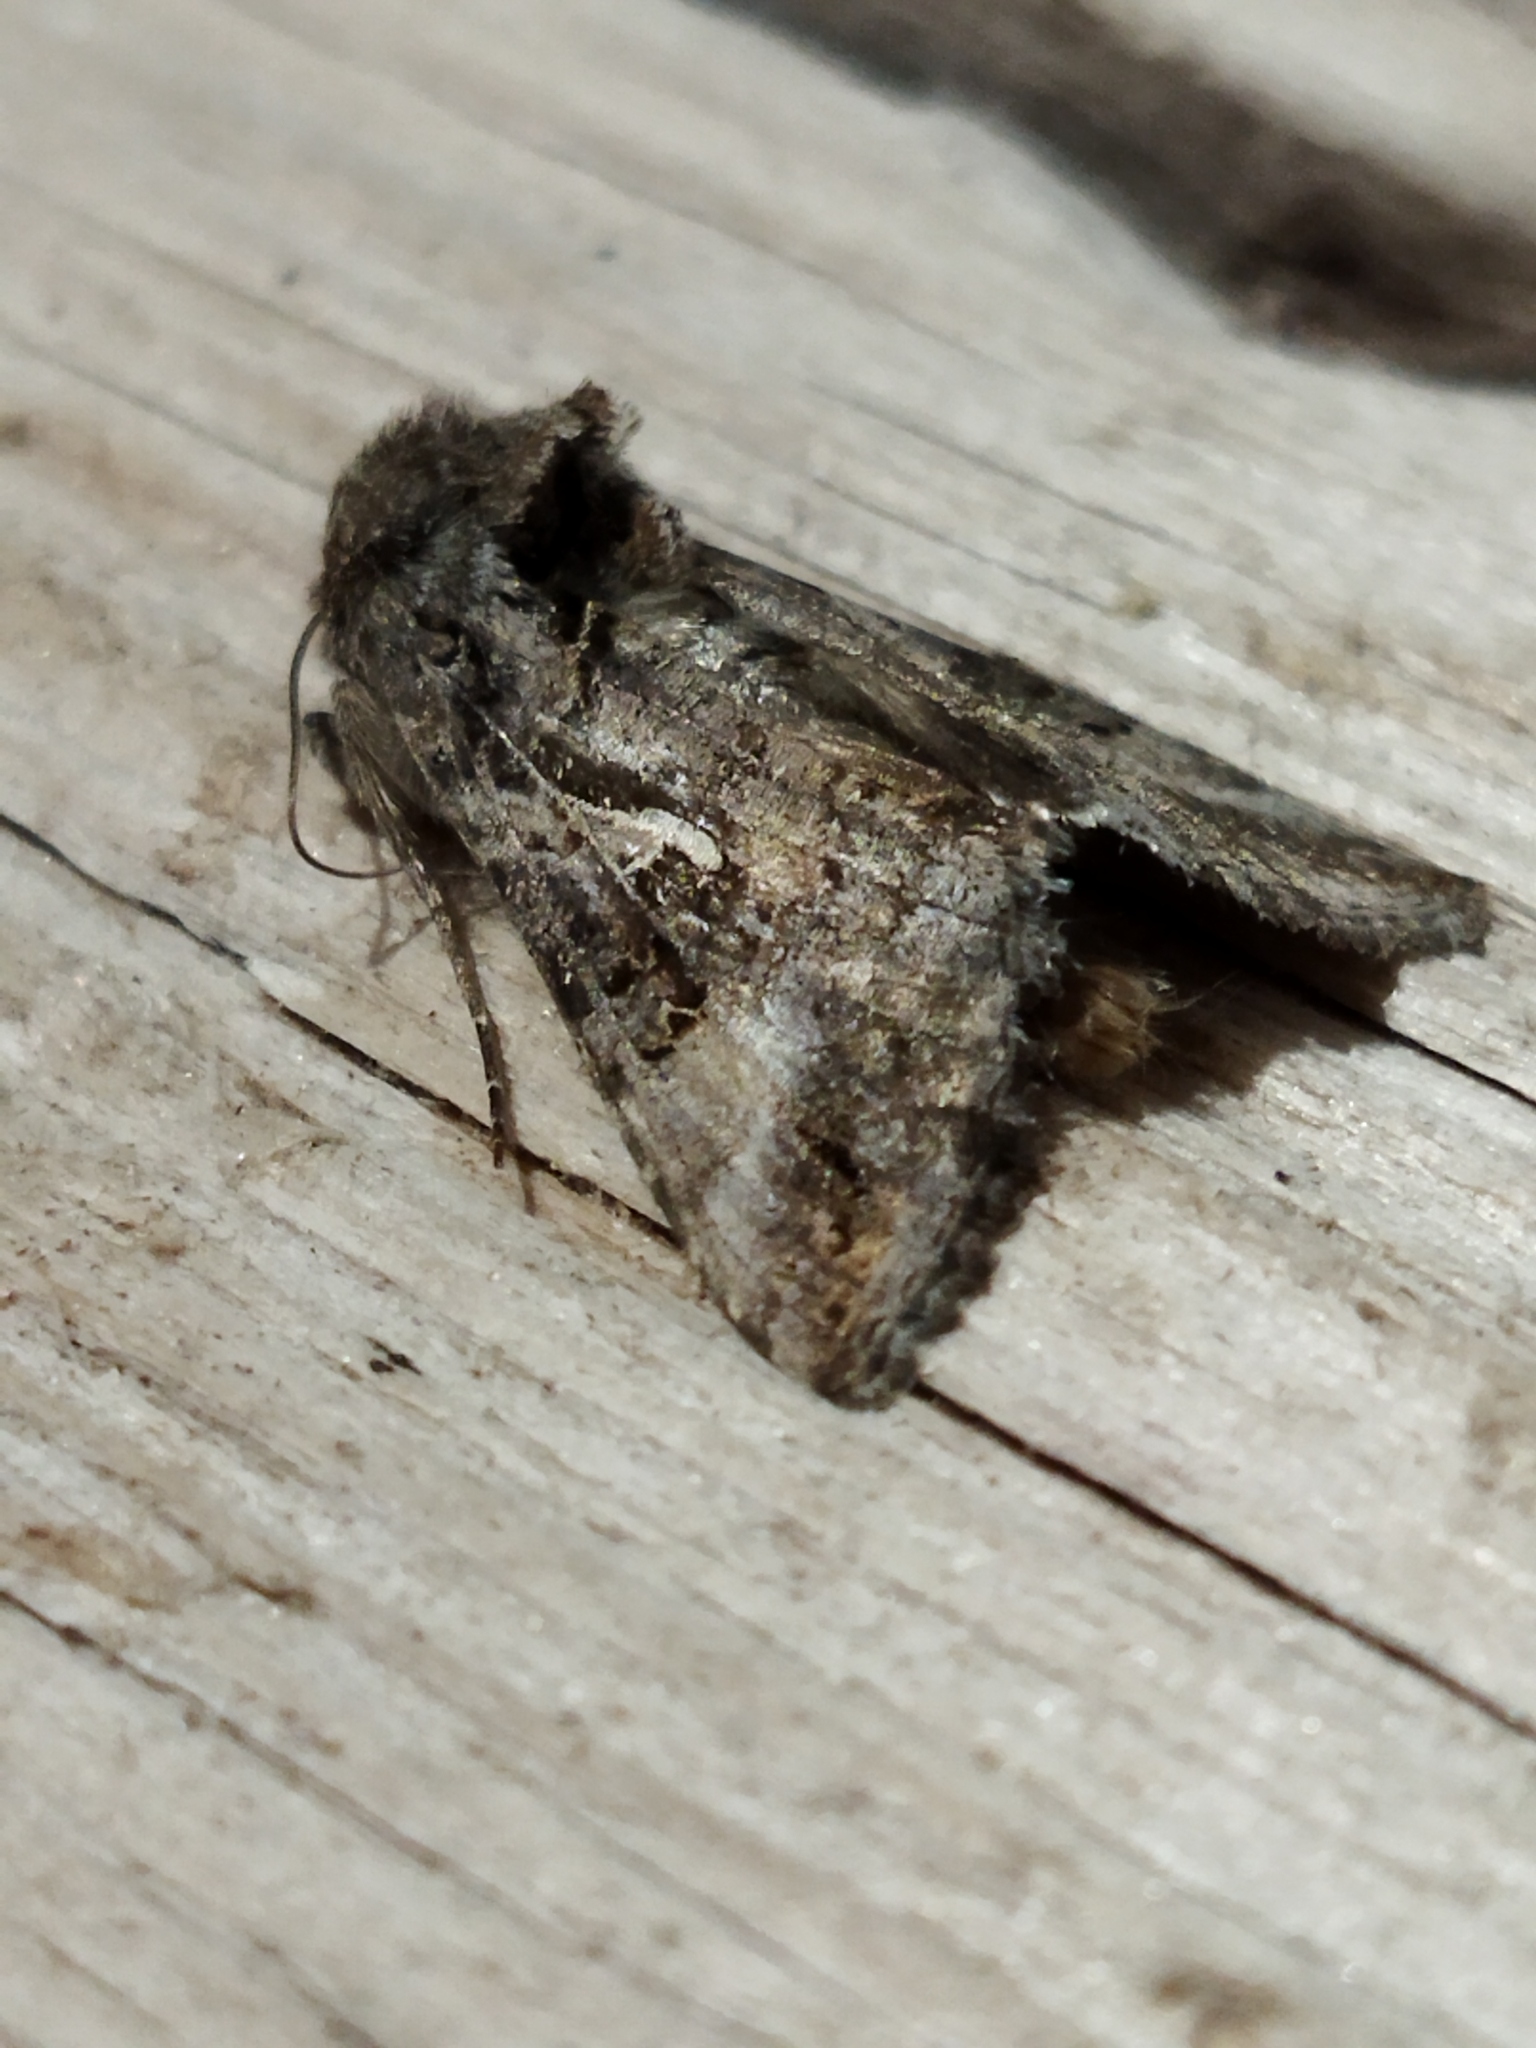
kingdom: Animalia
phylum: Arthropoda
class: Insecta
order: Lepidoptera
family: Noctuidae
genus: Autographa
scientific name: Autographa gamma
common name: Silver y
